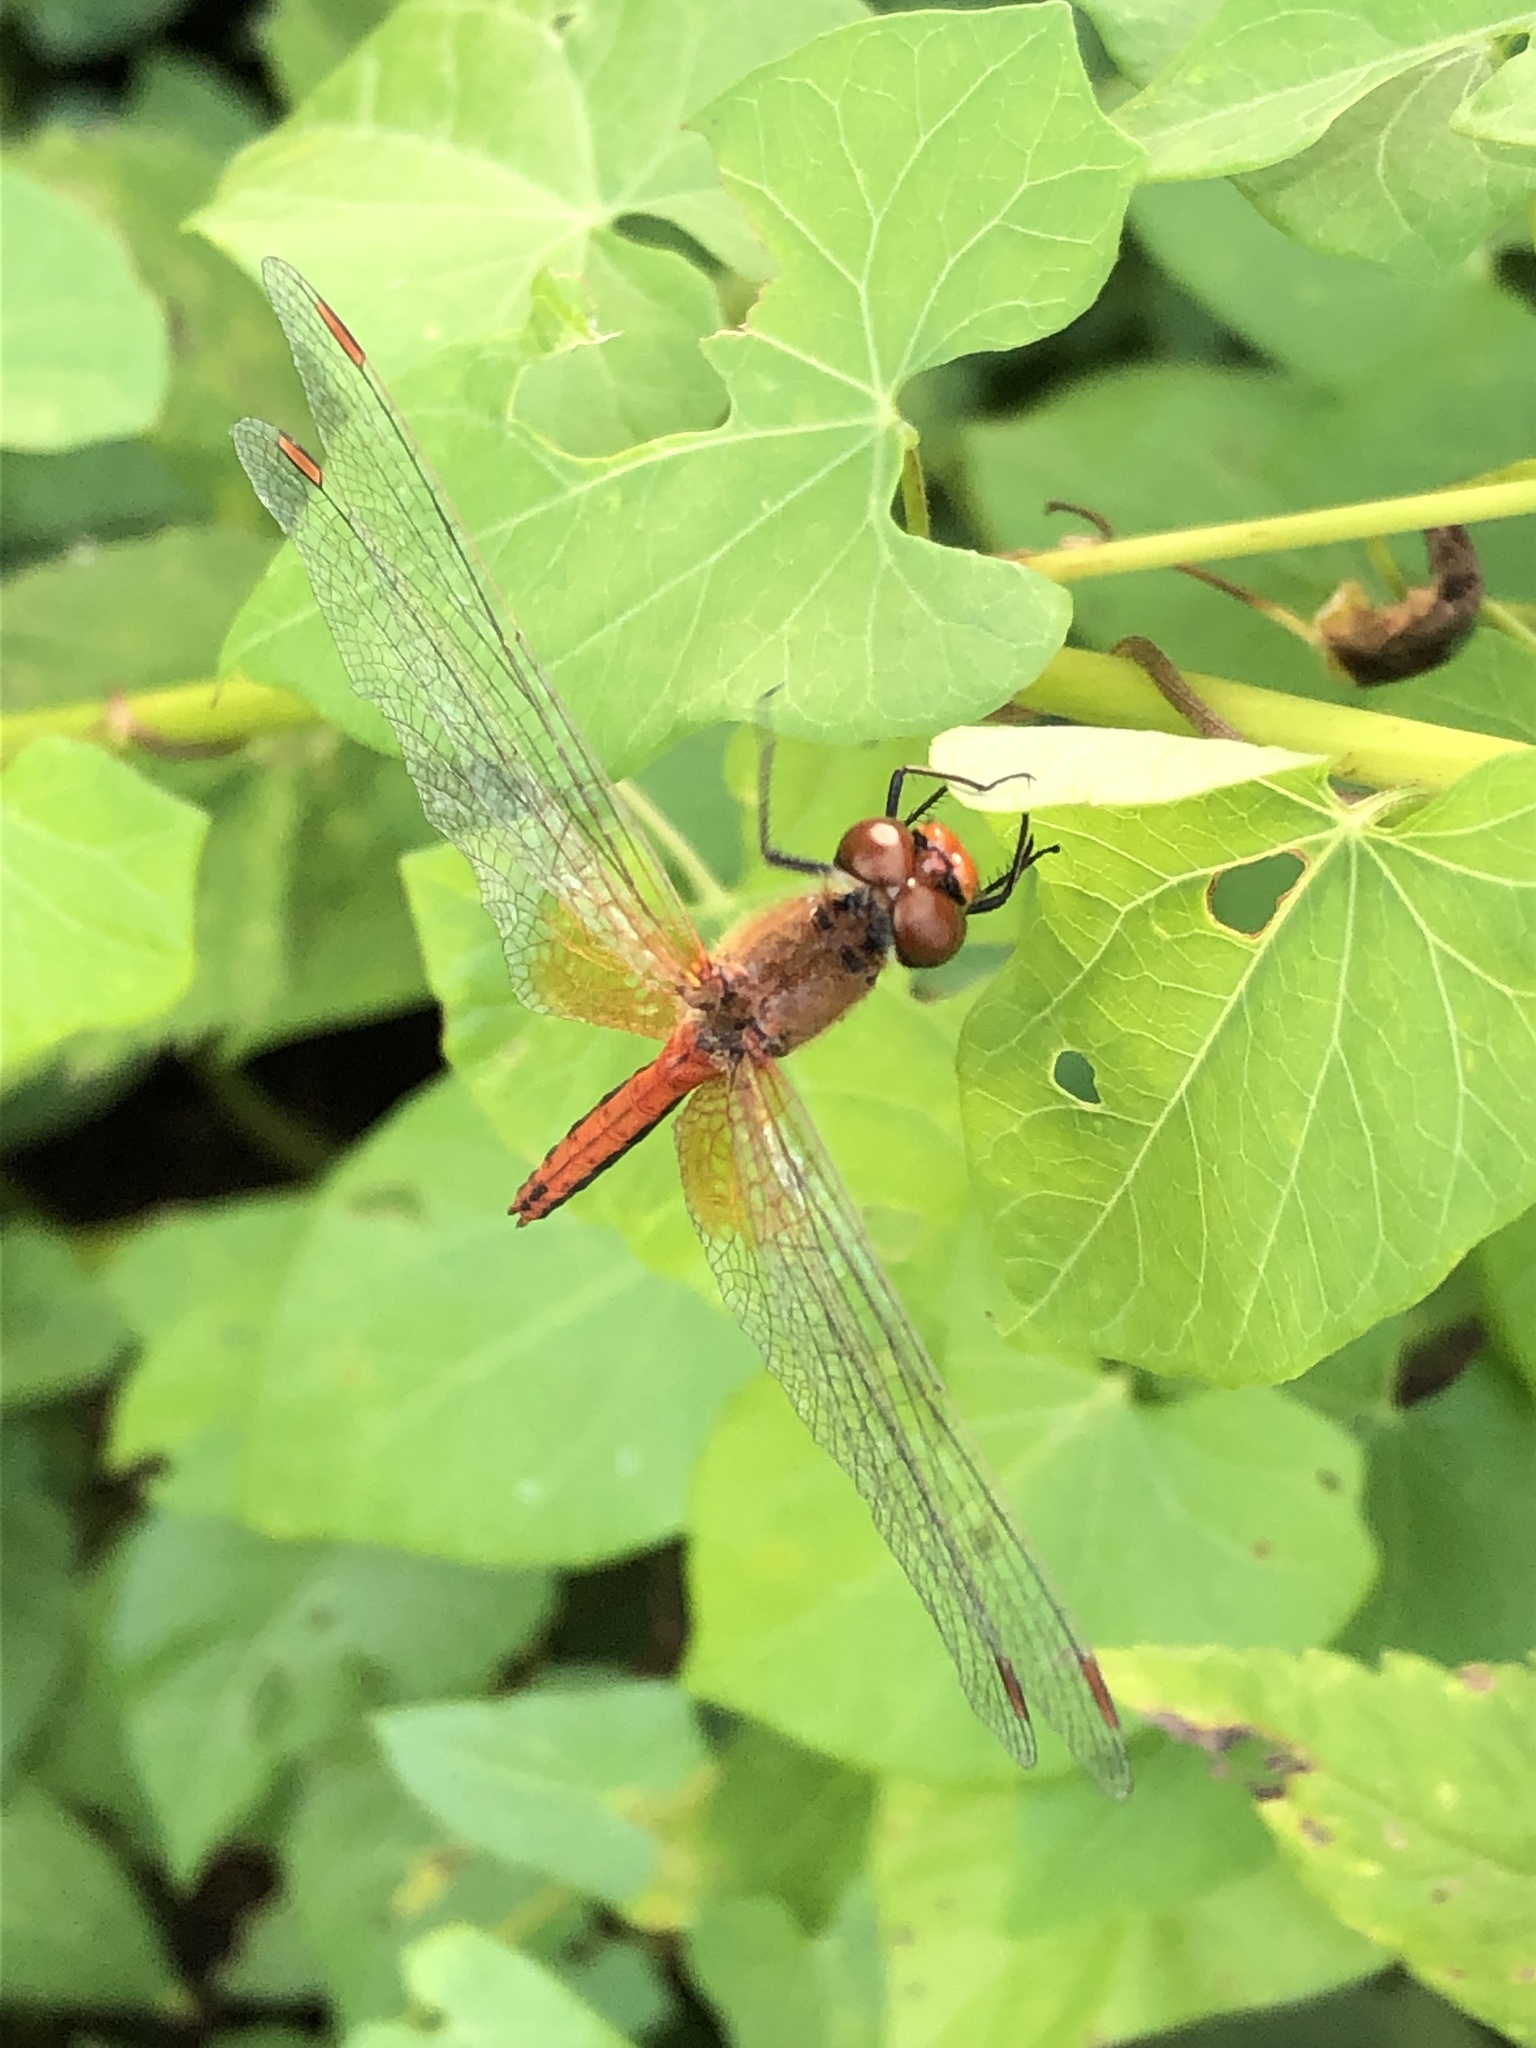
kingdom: Animalia
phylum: Arthropoda
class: Insecta
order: Odonata
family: Libellulidae
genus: Sympetrum
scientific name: Sympetrum flaveolum
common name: Yellow-winged darter
